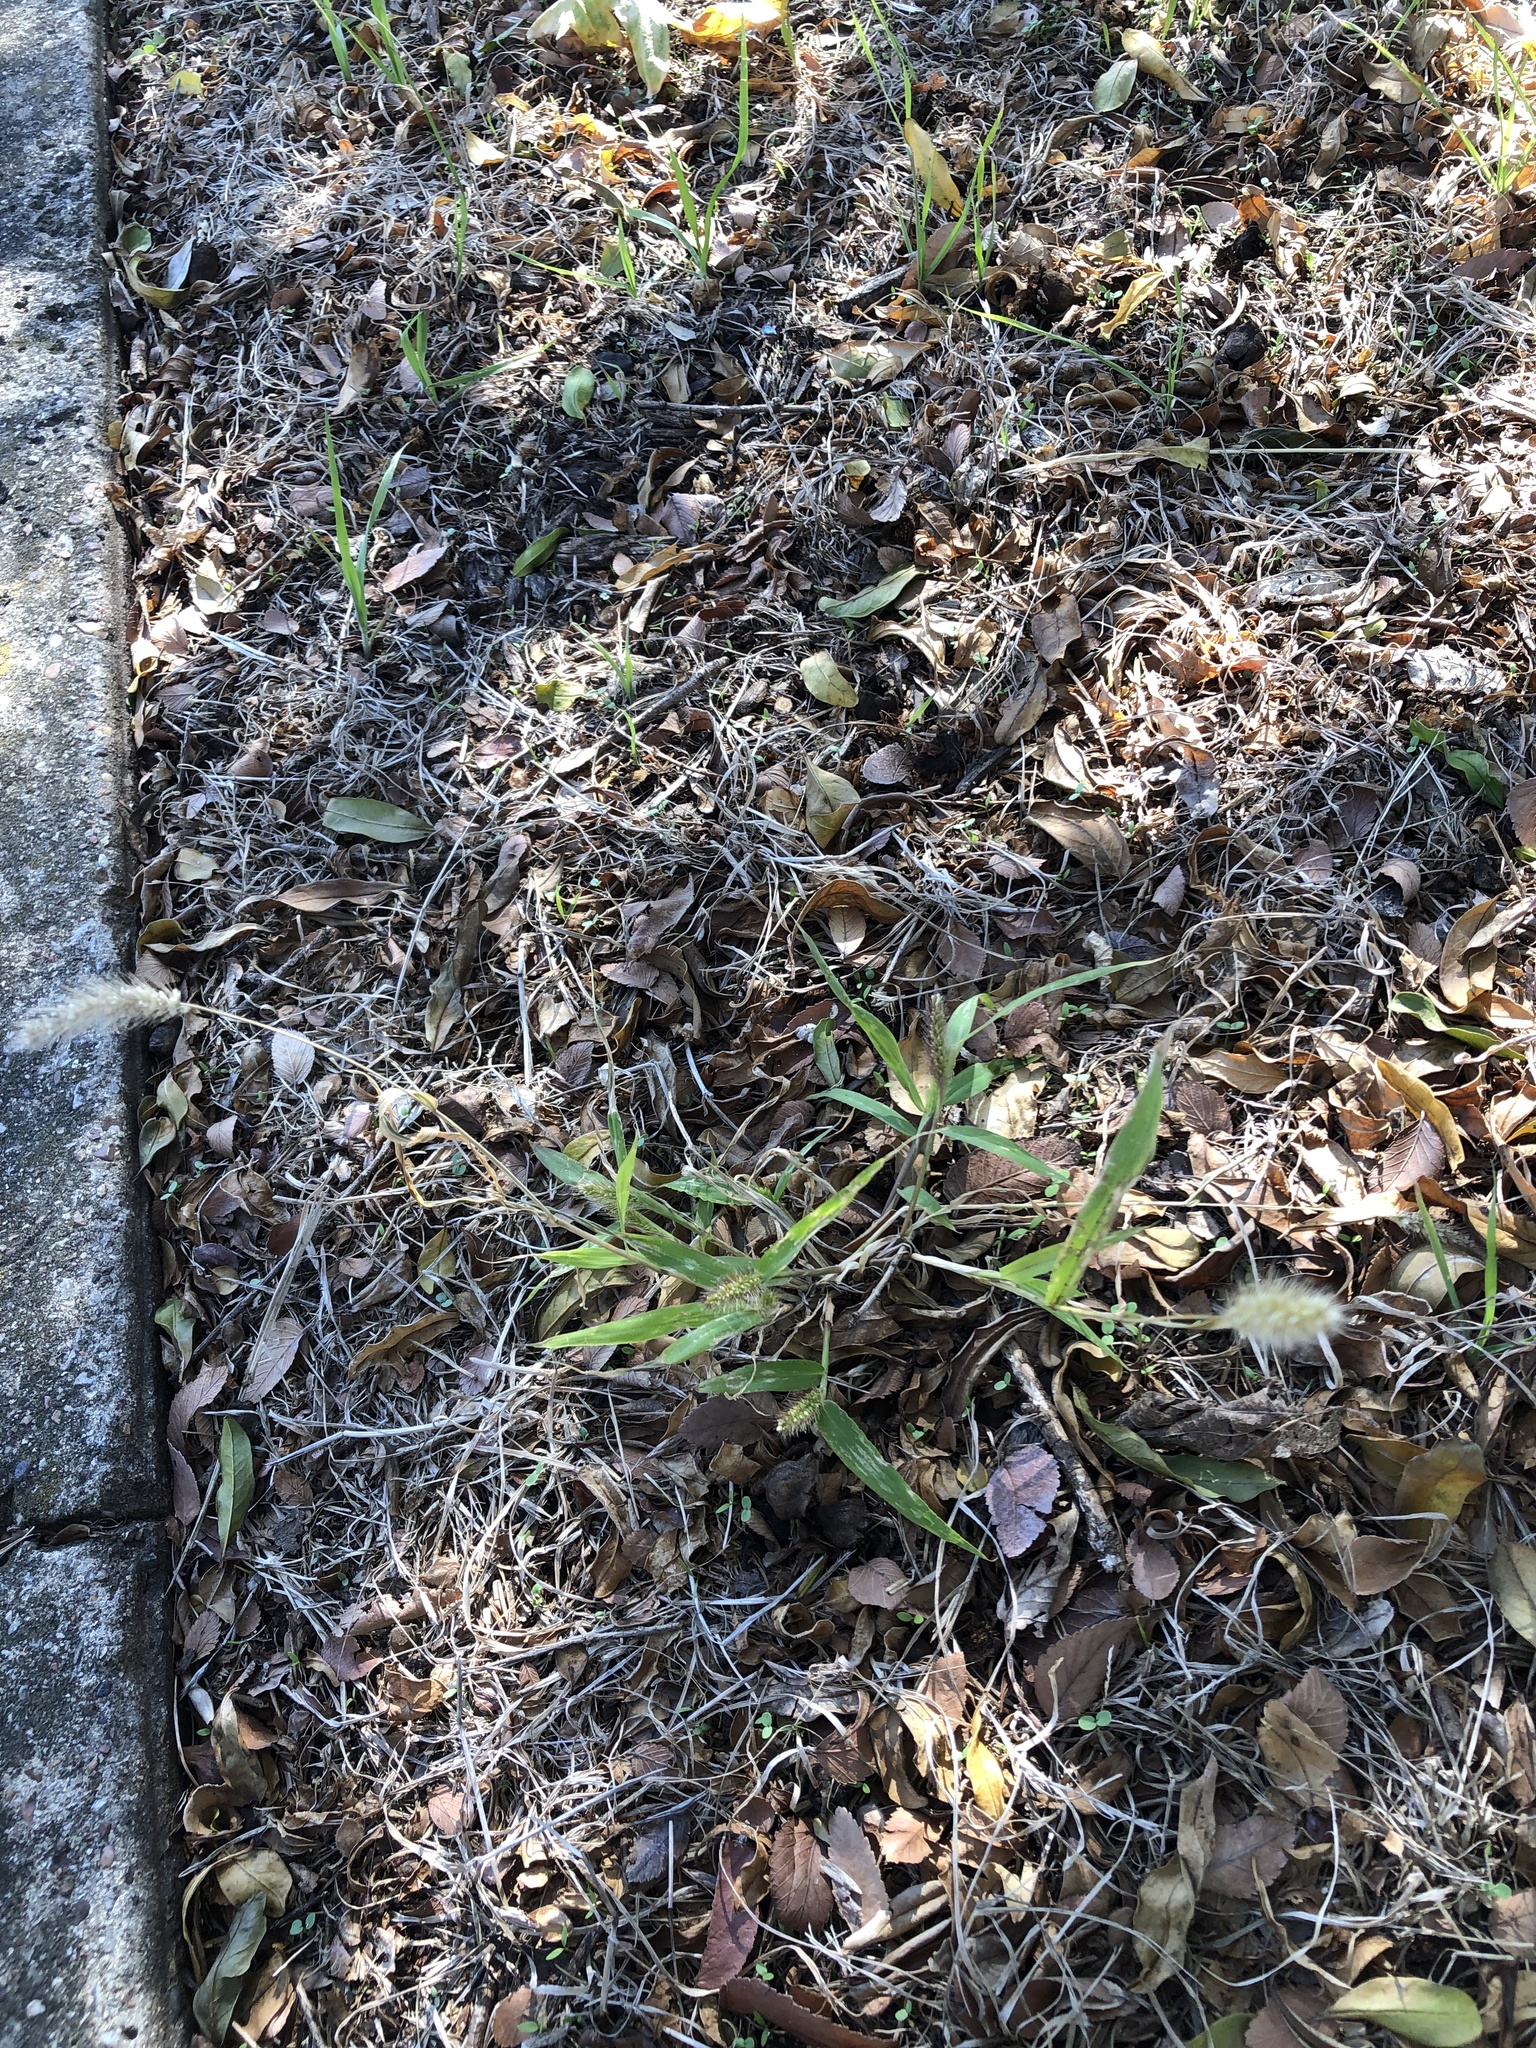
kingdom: Plantae
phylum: Tracheophyta
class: Liliopsida
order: Poales
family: Poaceae
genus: Setaria
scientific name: Setaria viridis
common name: Green bristlegrass
